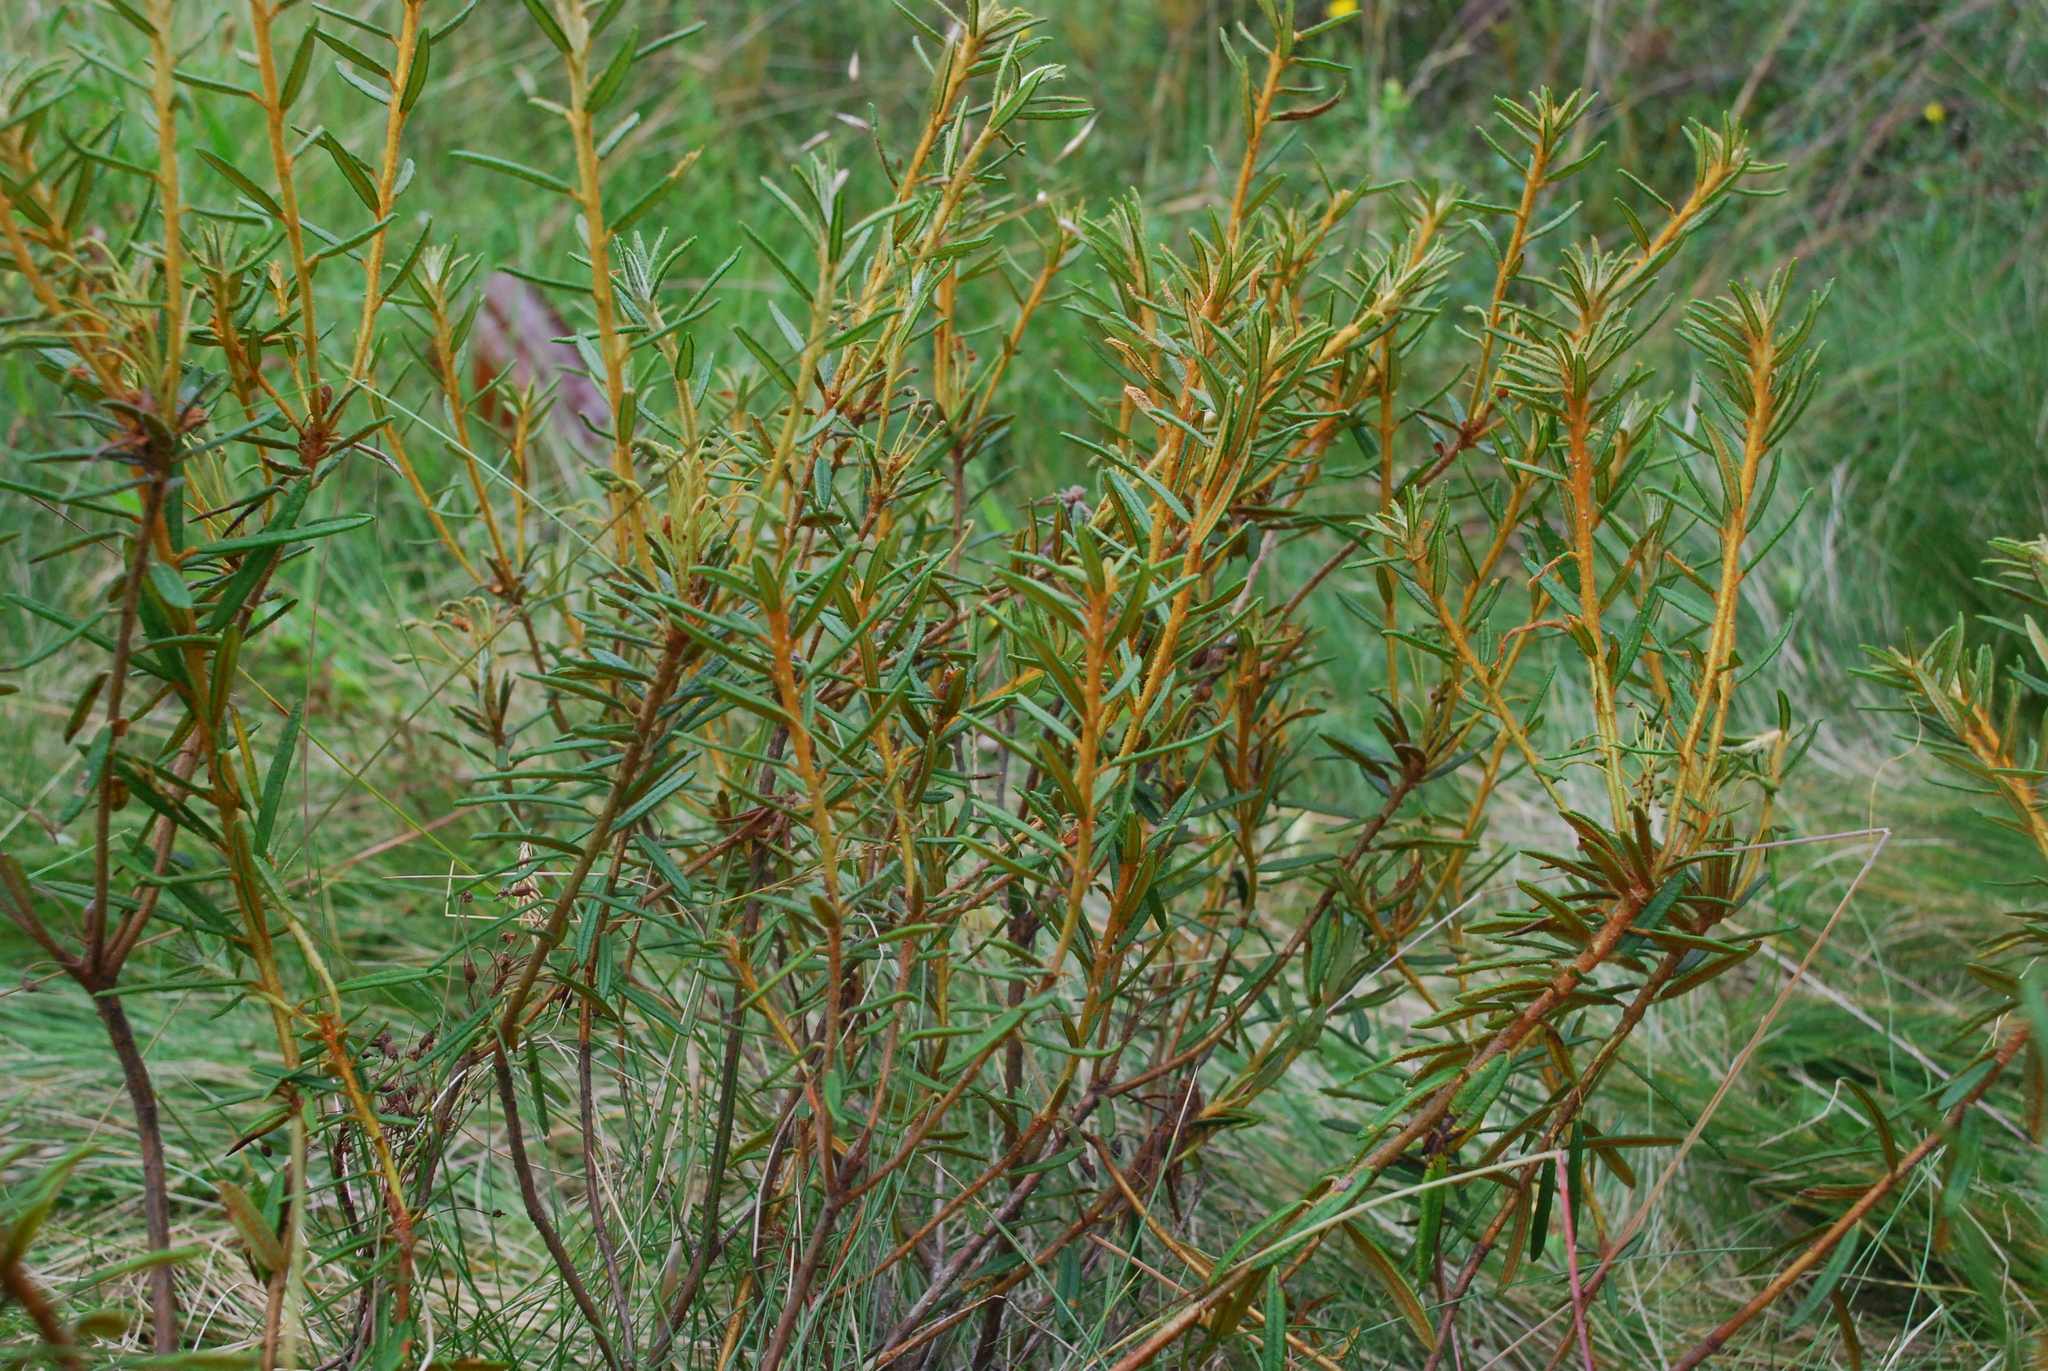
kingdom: Plantae
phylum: Tracheophyta
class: Magnoliopsida
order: Ericales
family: Ericaceae
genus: Rhododendron
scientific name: Rhododendron tomentosum
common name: Marsh labrador tea
